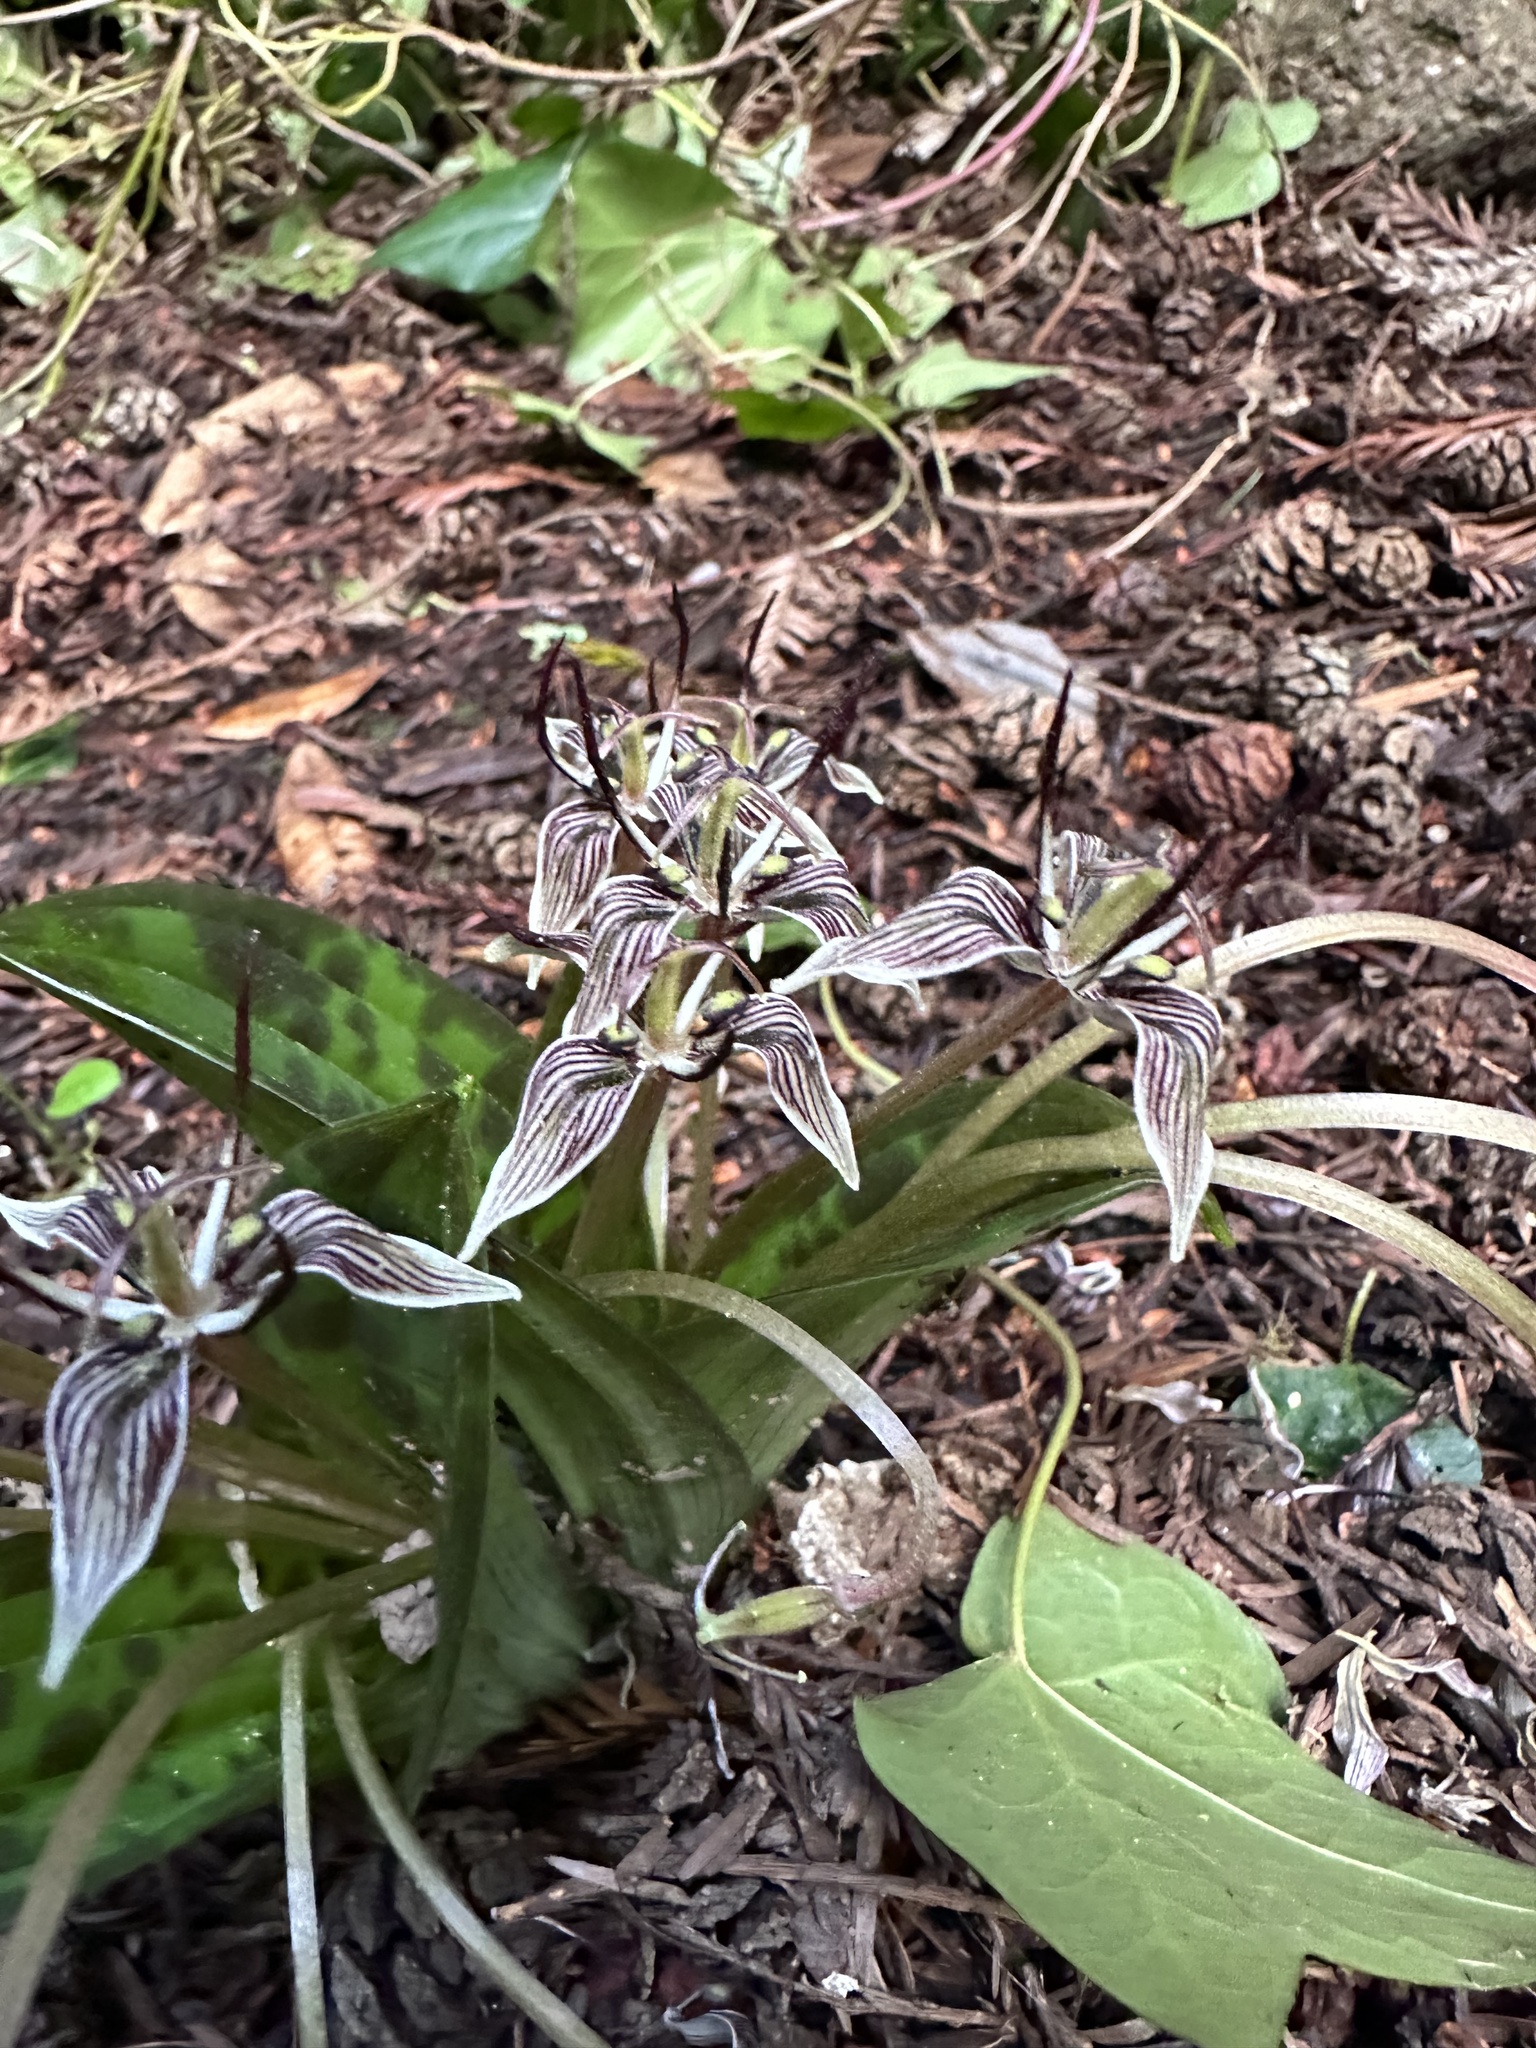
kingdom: Plantae
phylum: Tracheophyta
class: Liliopsida
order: Liliales
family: Liliaceae
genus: Scoliopus
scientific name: Scoliopus bigelovii
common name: Foetid adder's-tongue
